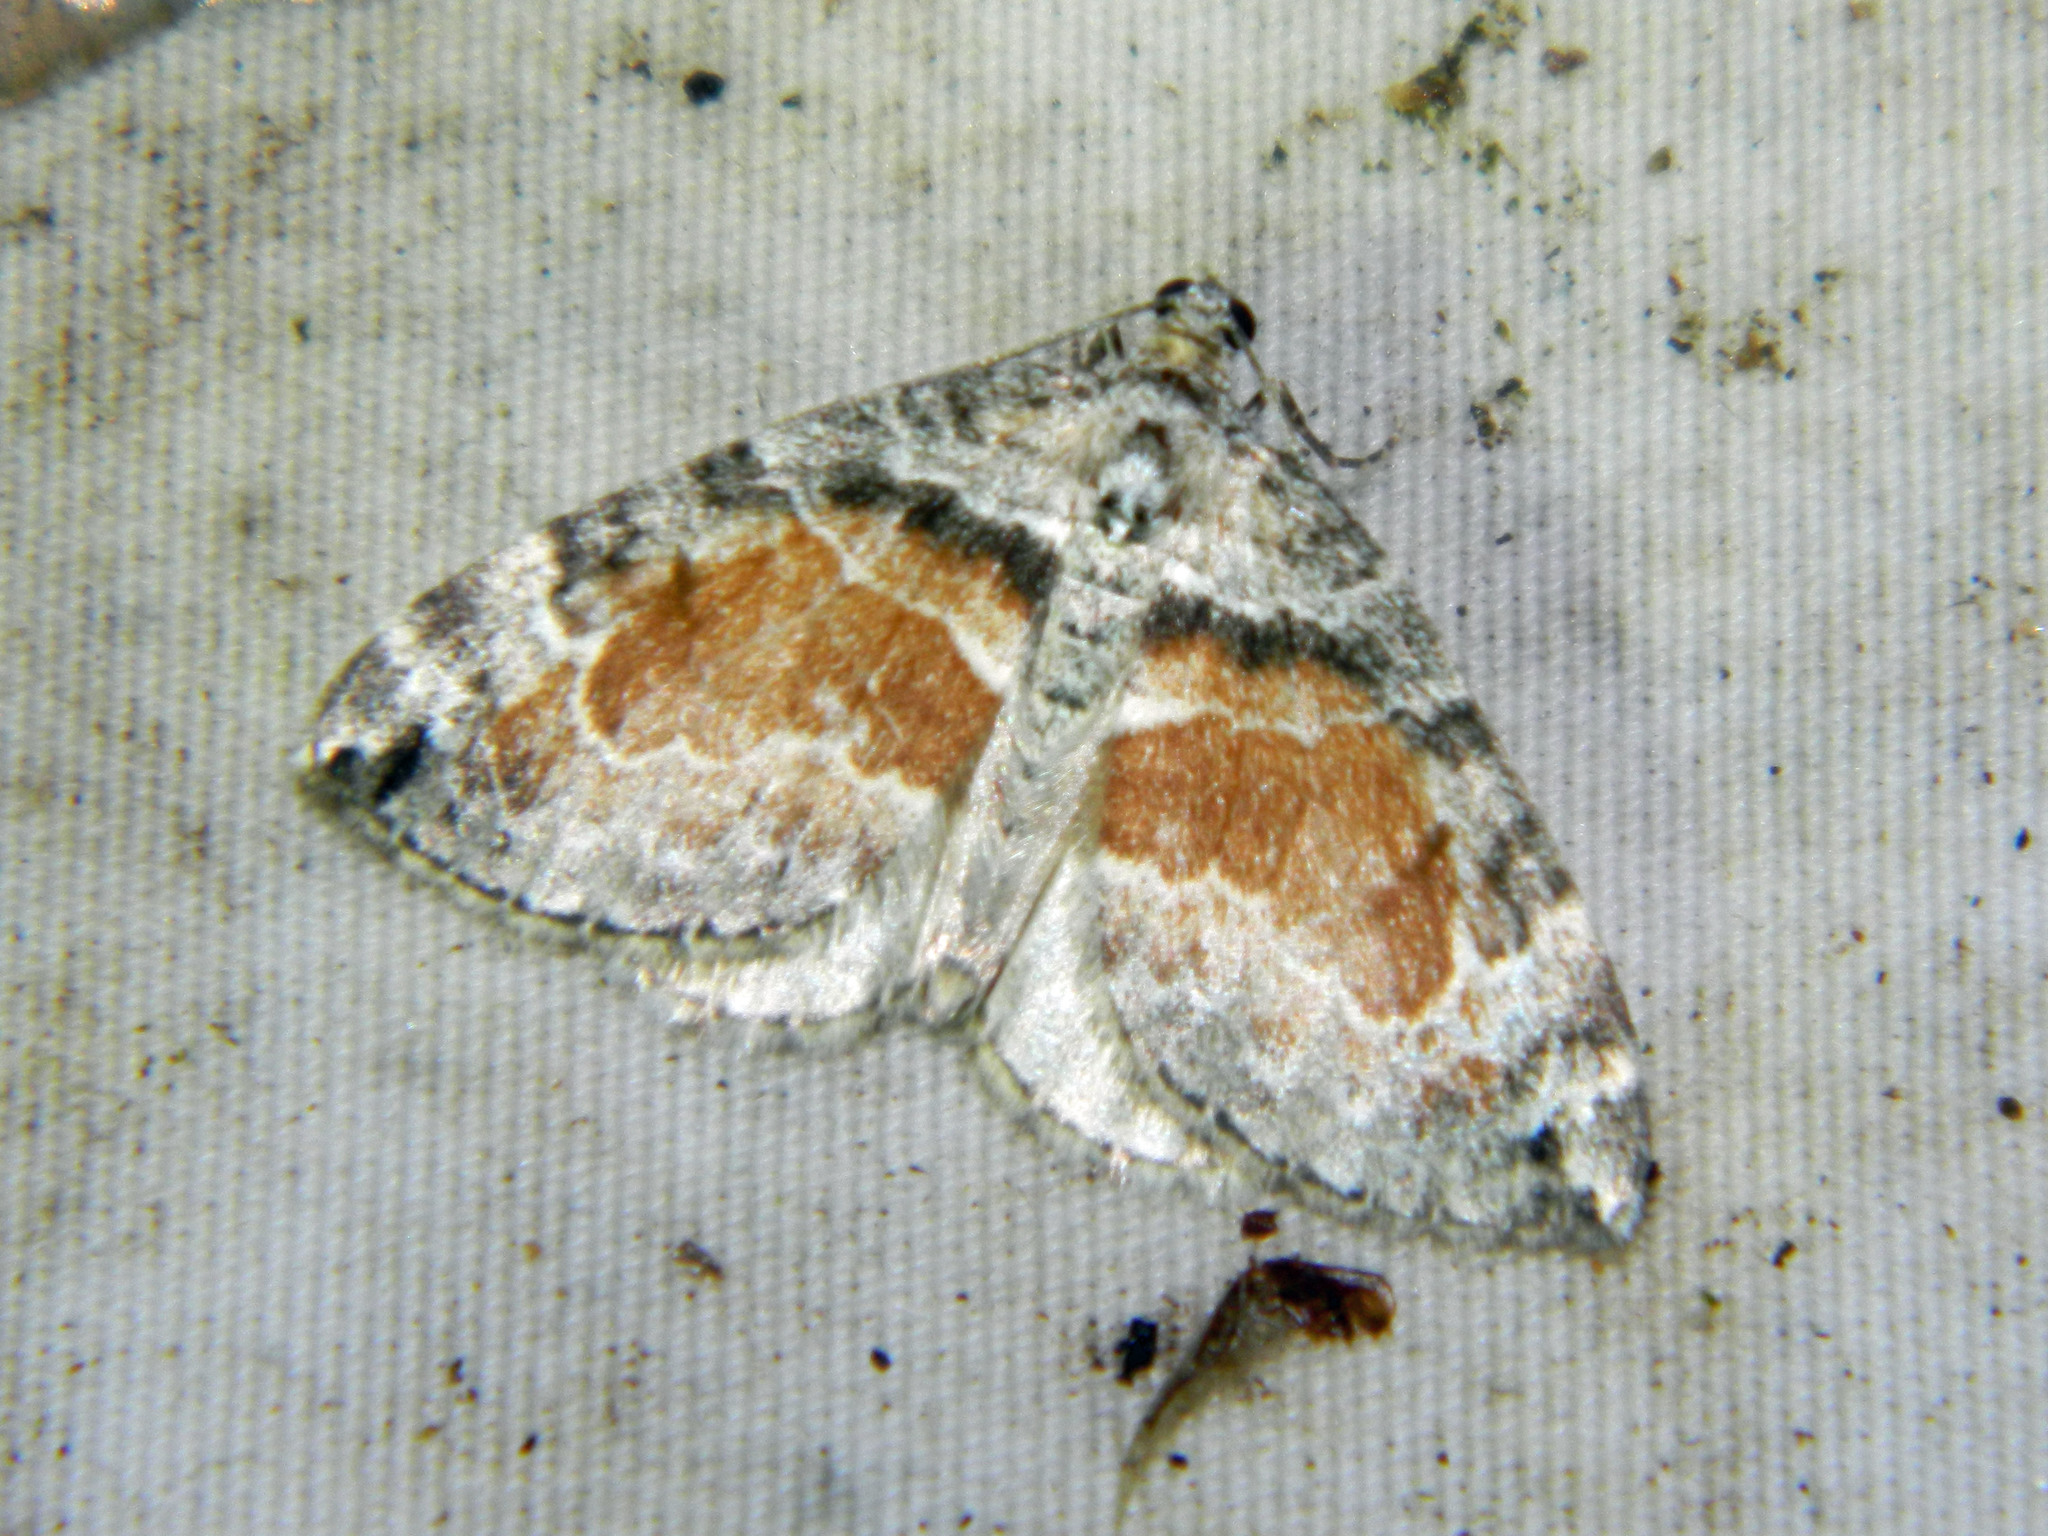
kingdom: Animalia
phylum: Arthropoda
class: Insecta
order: Lepidoptera
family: Geometridae
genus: Dysstroma
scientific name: Dysstroma hersiliata
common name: Orange-barred carpet
